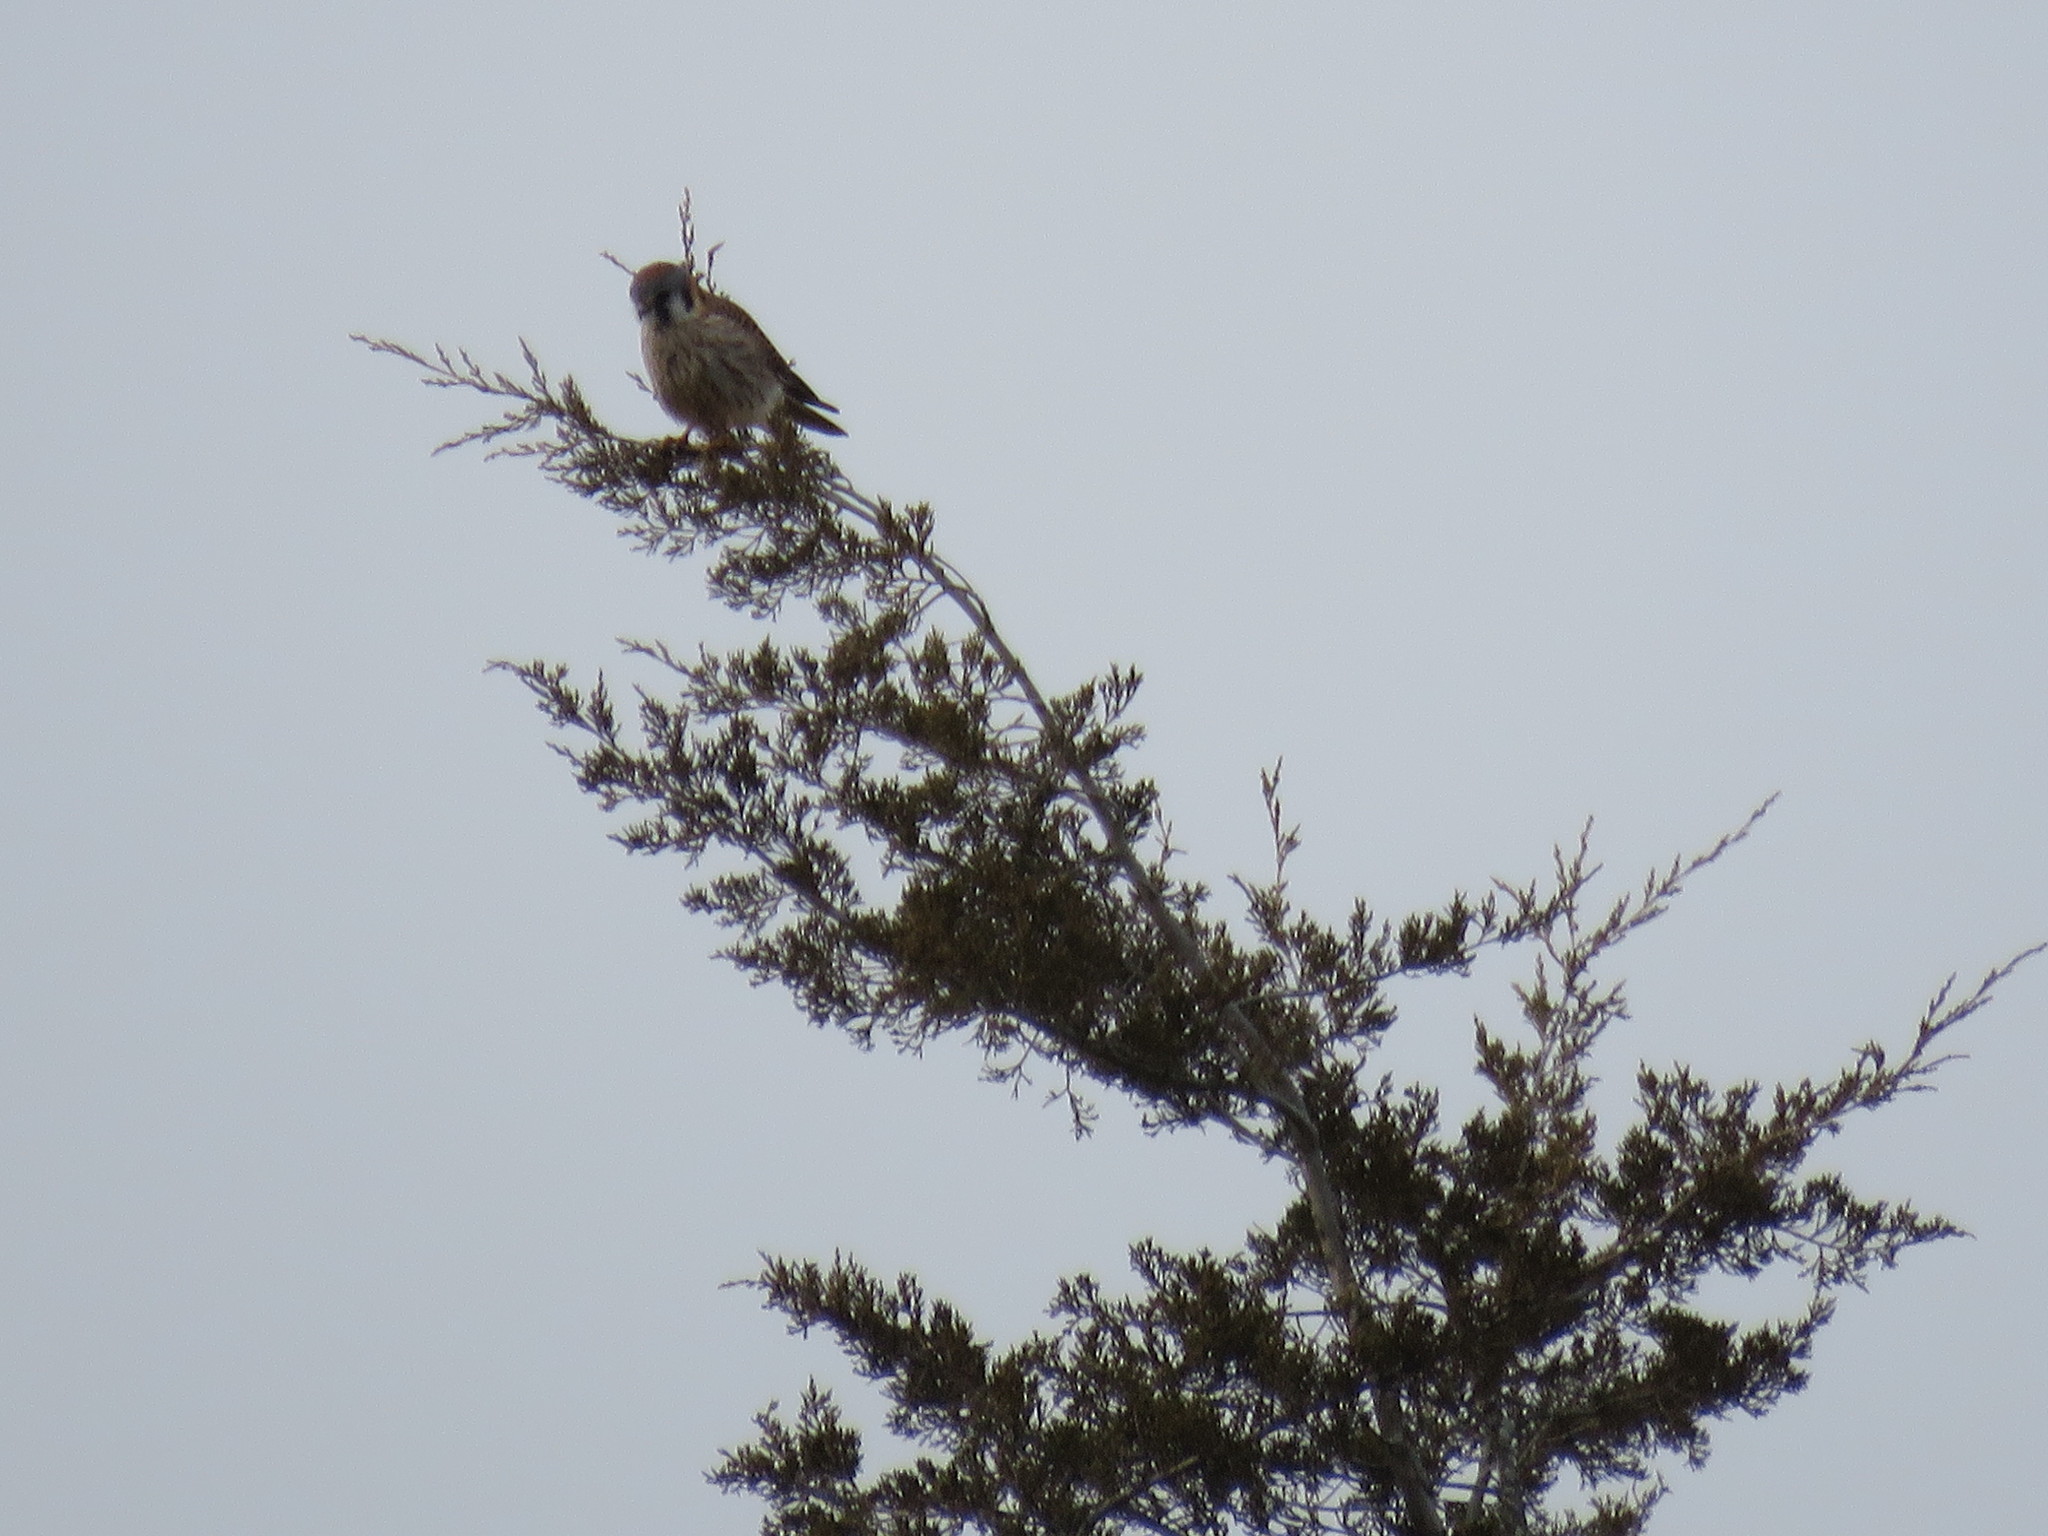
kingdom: Animalia
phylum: Chordata
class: Aves
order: Falconiformes
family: Falconidae
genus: Falco
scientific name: Falco sparverius
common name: American kestrel
